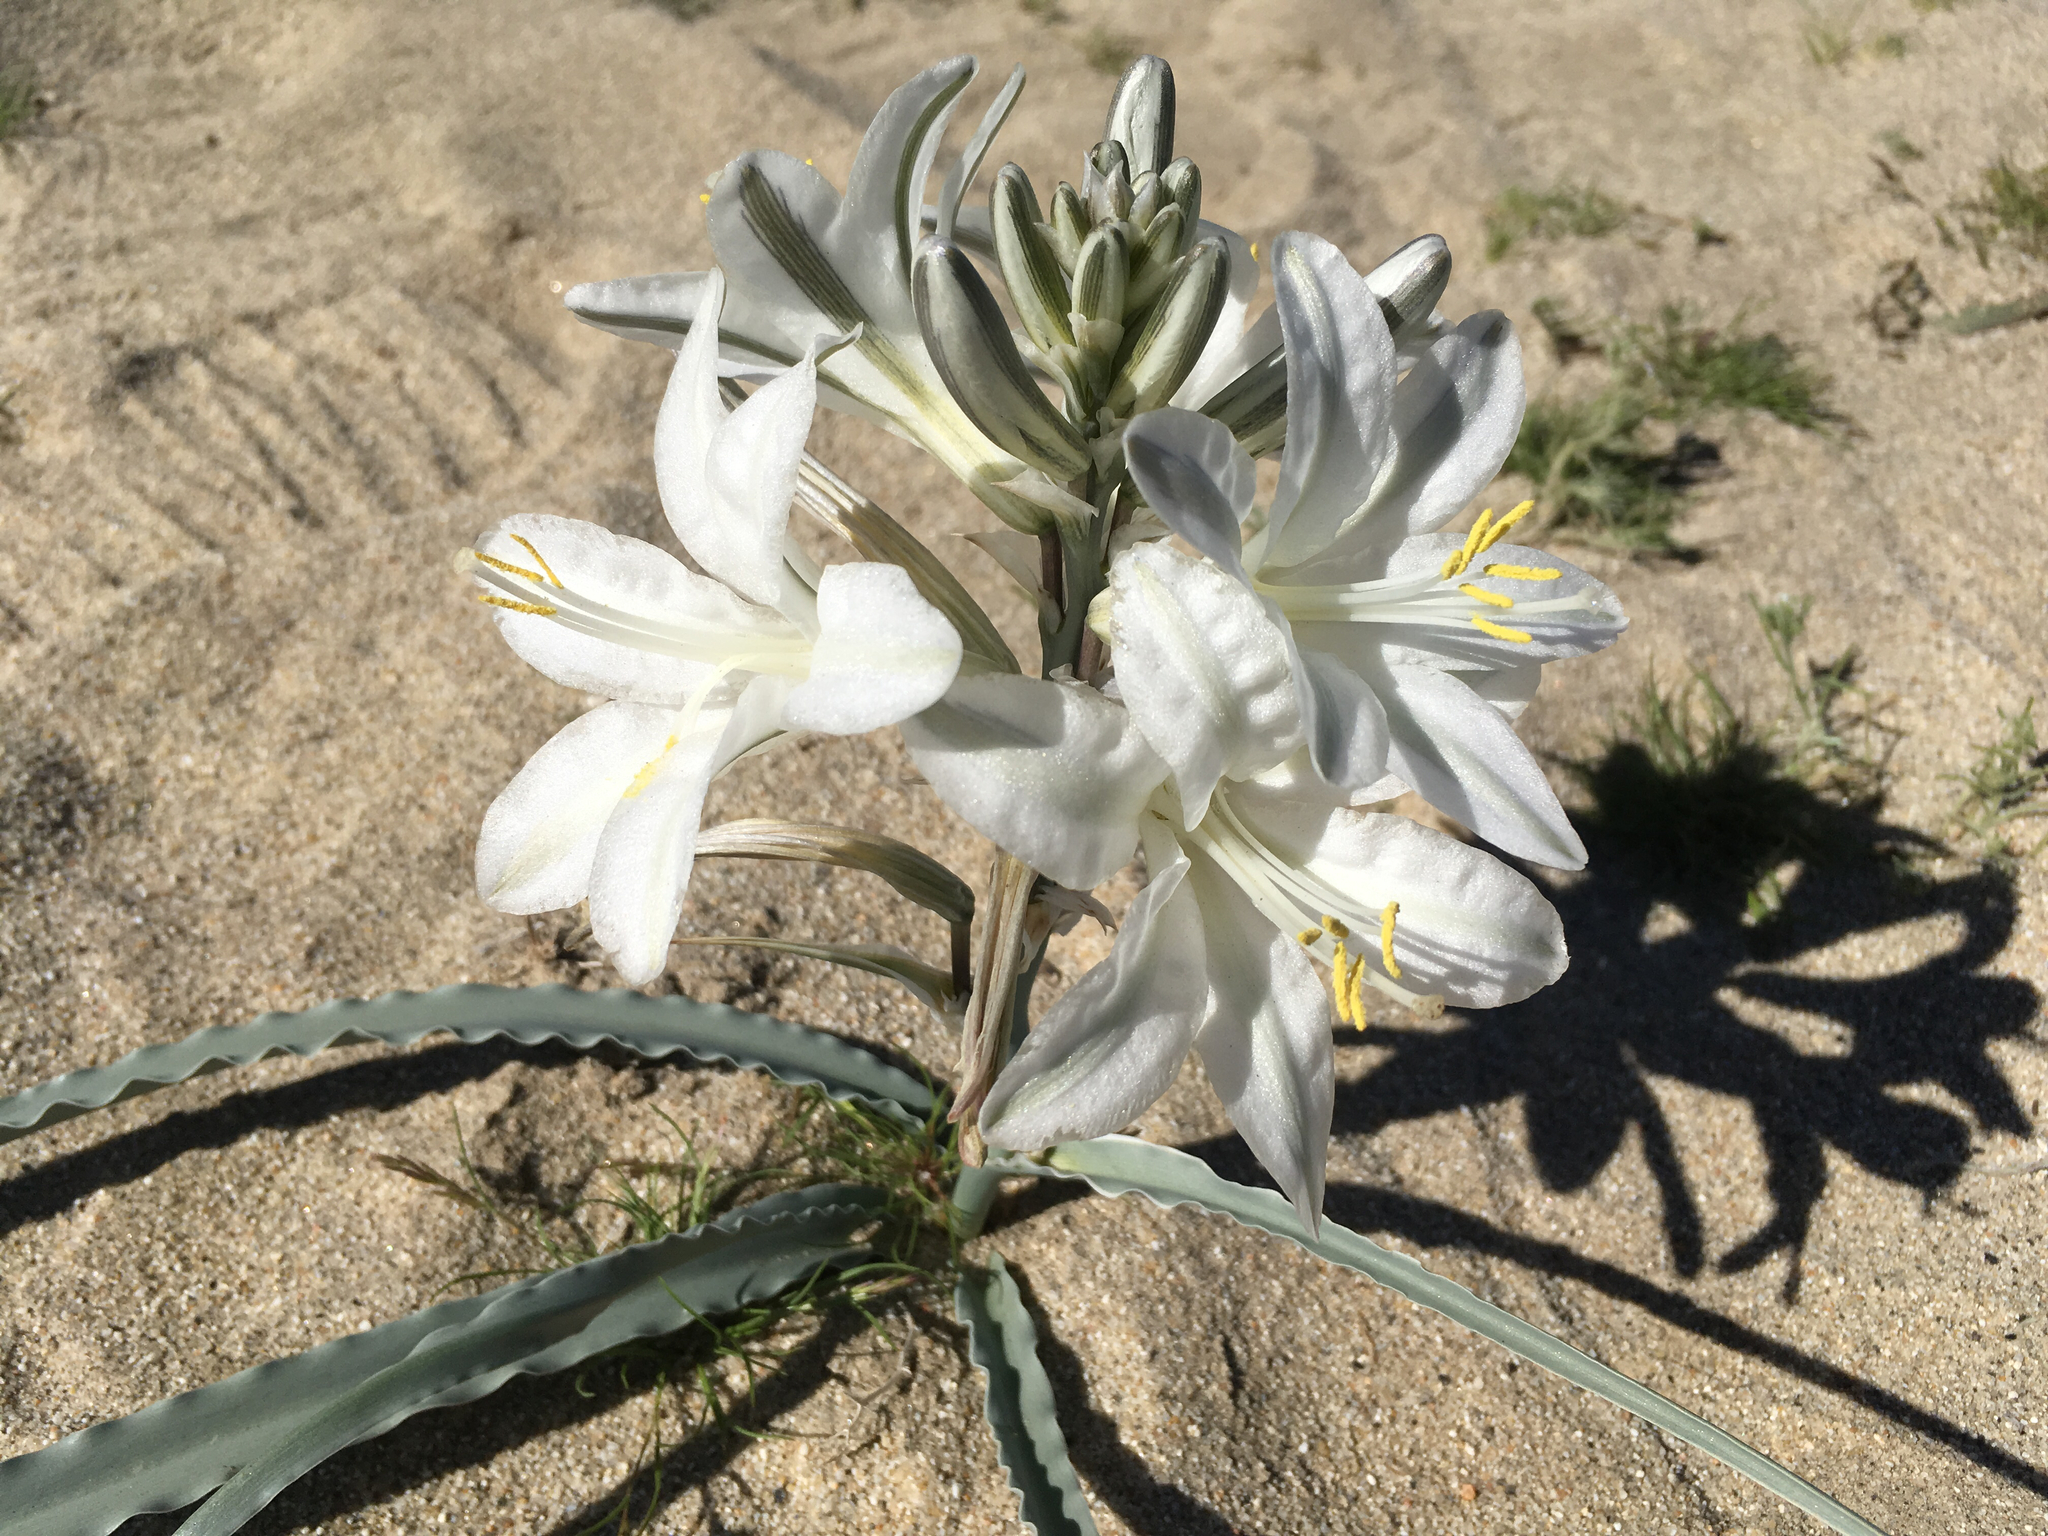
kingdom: Plantae
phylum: Tracheophyta
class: Liliopsida
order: Asparagales
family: Asparagaceae
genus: Hesperocallis
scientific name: Hesperocallis undulata
